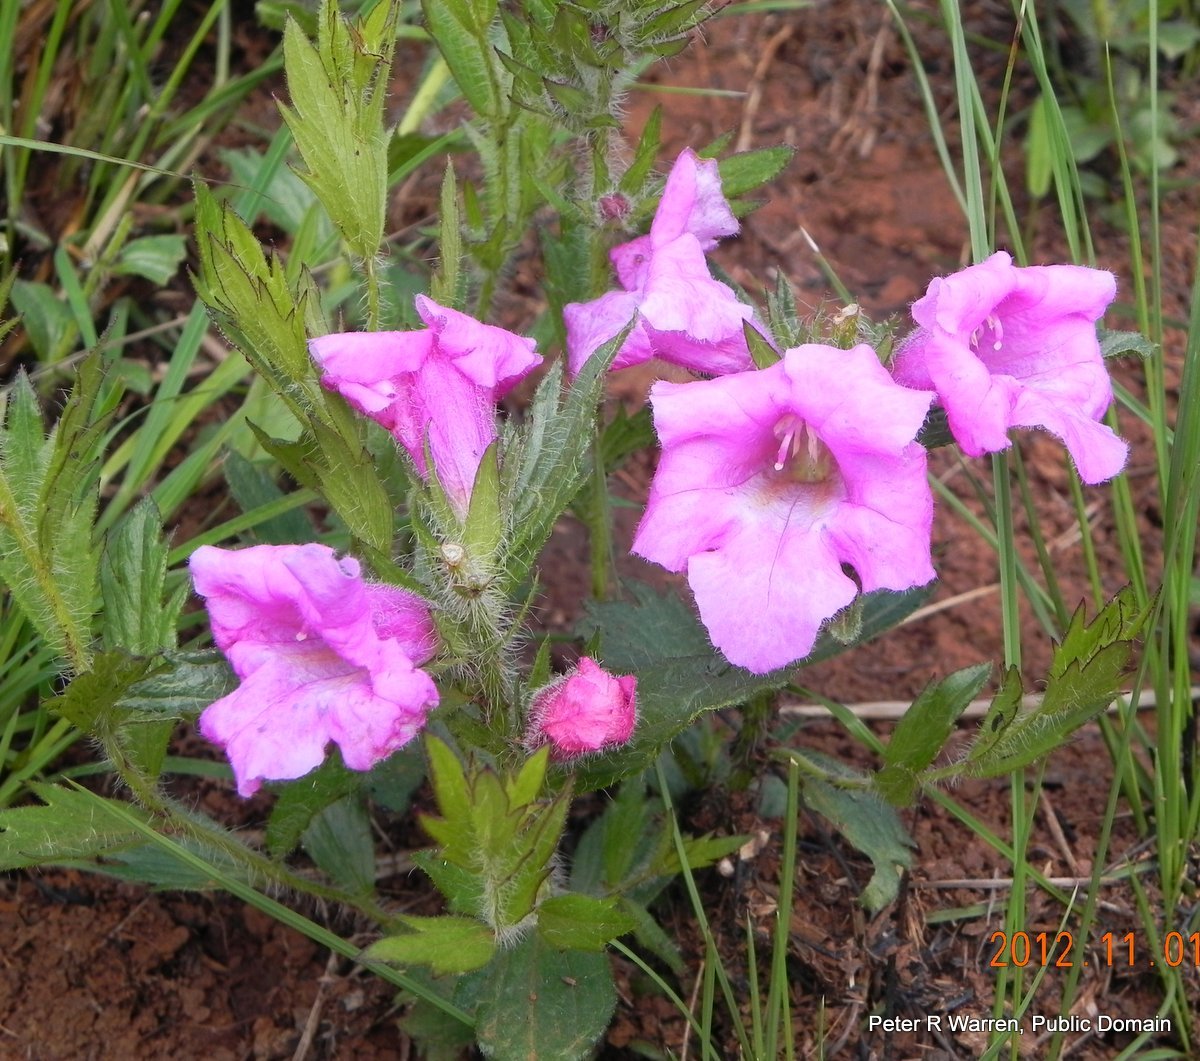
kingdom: Plantae
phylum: Tracheophyta
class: Magnoliopsida
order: Lamiales
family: Orobanchaceae
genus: Graderia
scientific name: Graderia scabra
